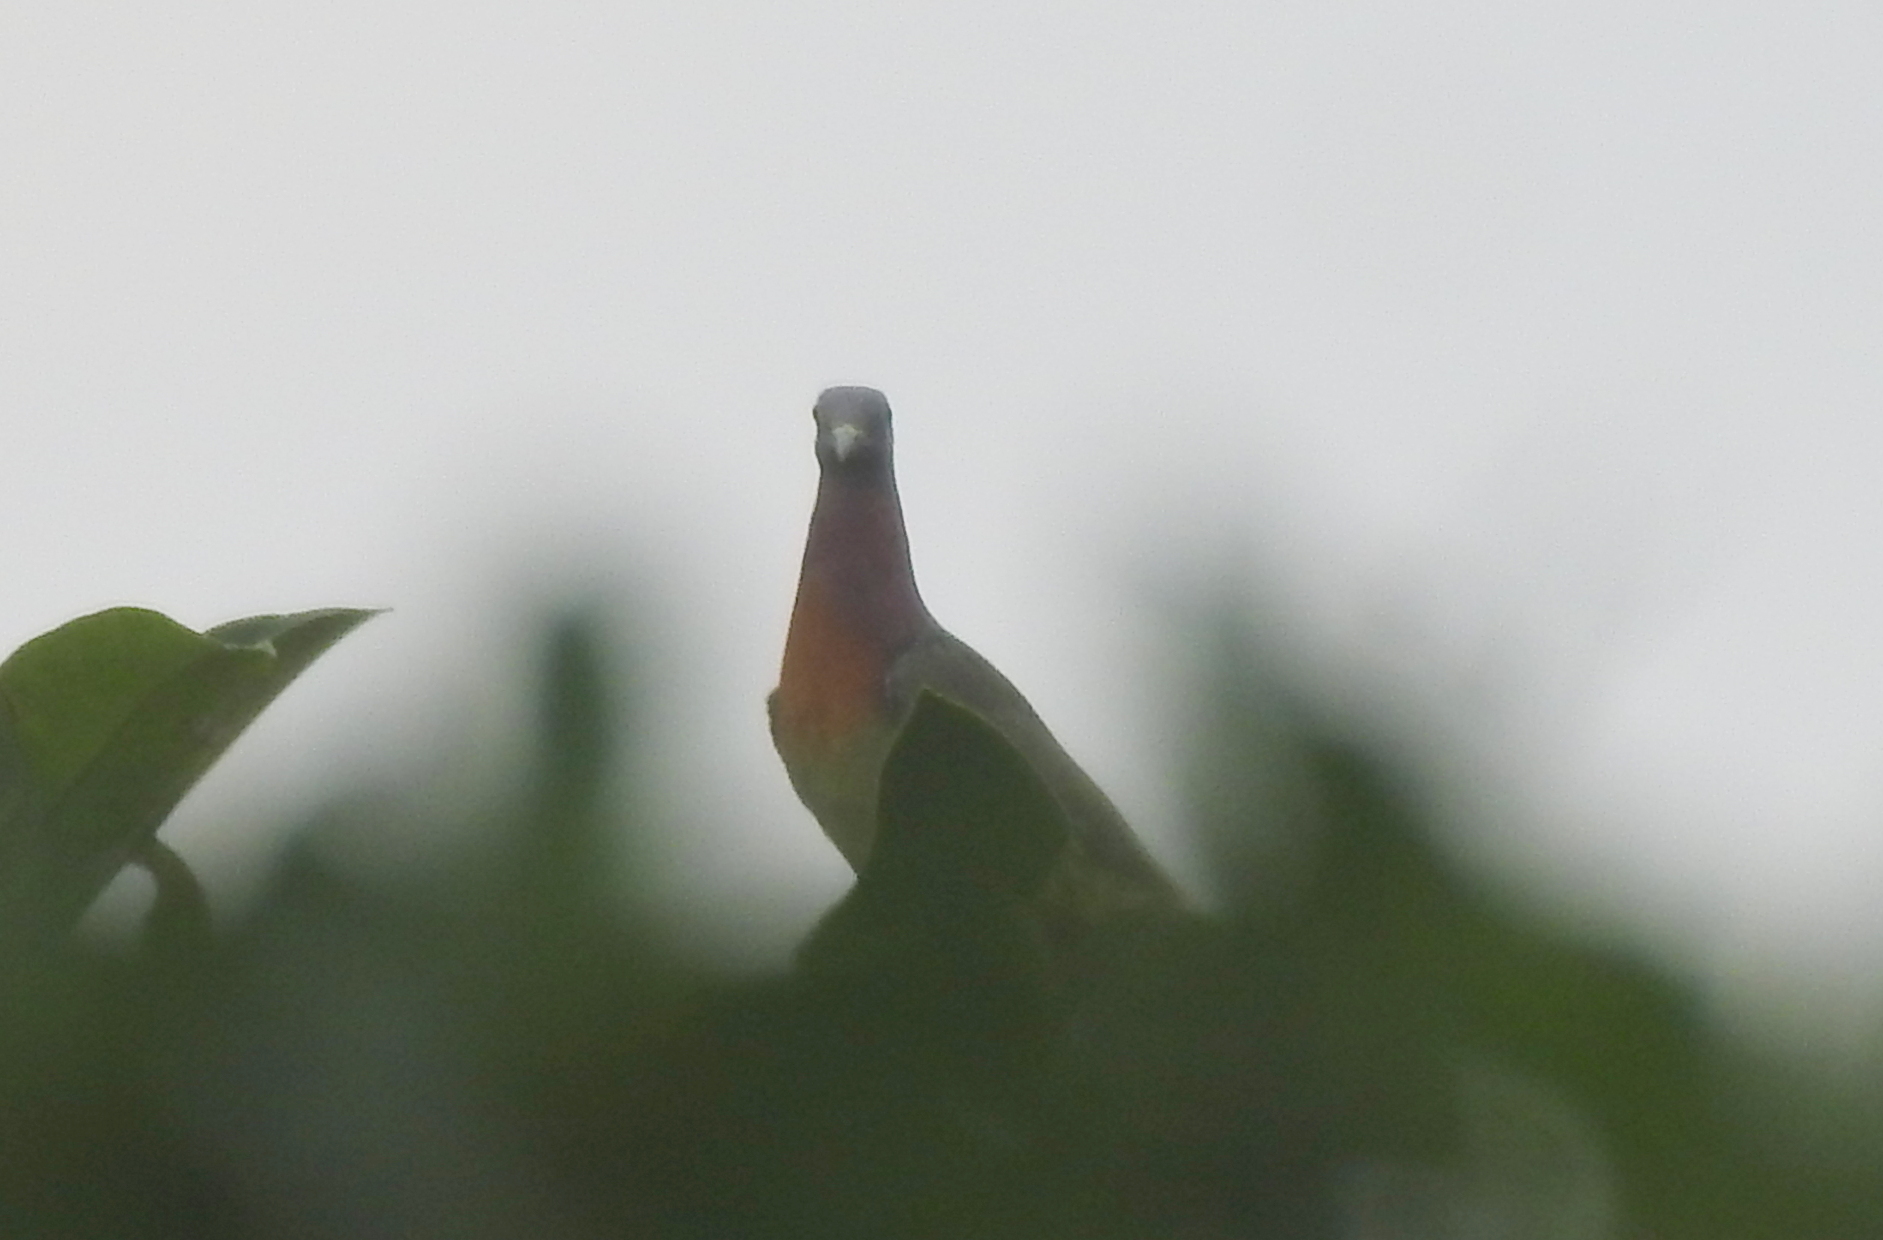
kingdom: Animalia
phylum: Chordata
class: Aves
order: Columbiformes
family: Columbidae
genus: Treron
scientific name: Treron vernans
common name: Pink-necked green pigeon
